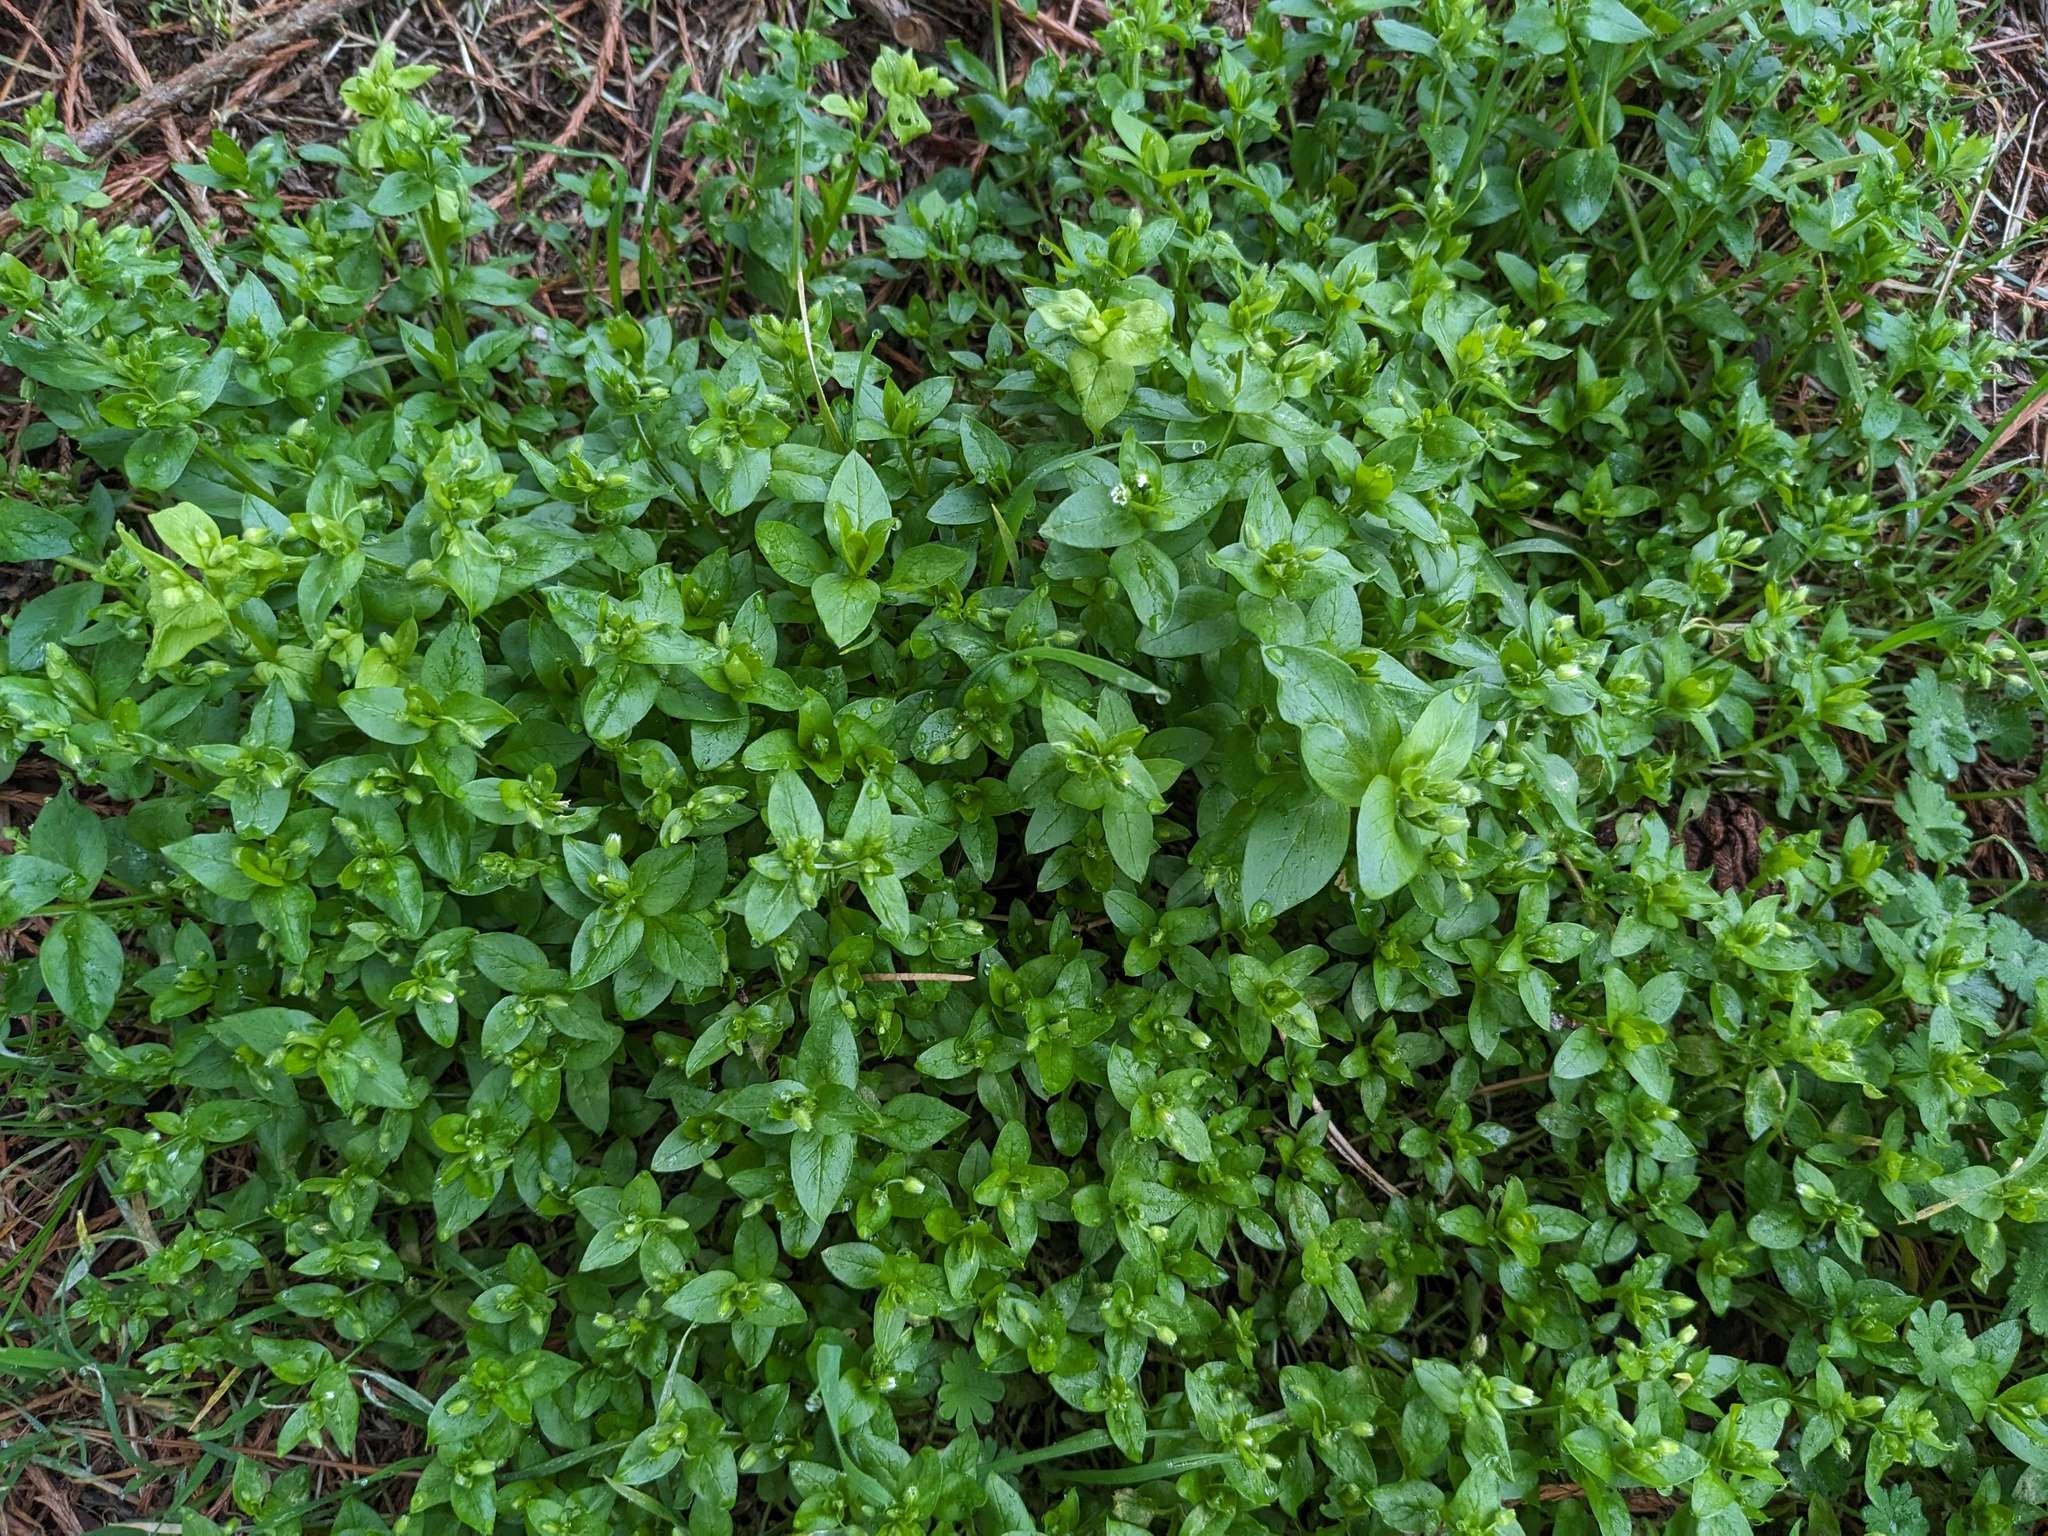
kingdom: Plantae
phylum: Tracheophyta
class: Magnoliopsida
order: Caryophyllales
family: Caryophyllaceae
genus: Stellaria
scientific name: Stellaria media
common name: Common chickweed
